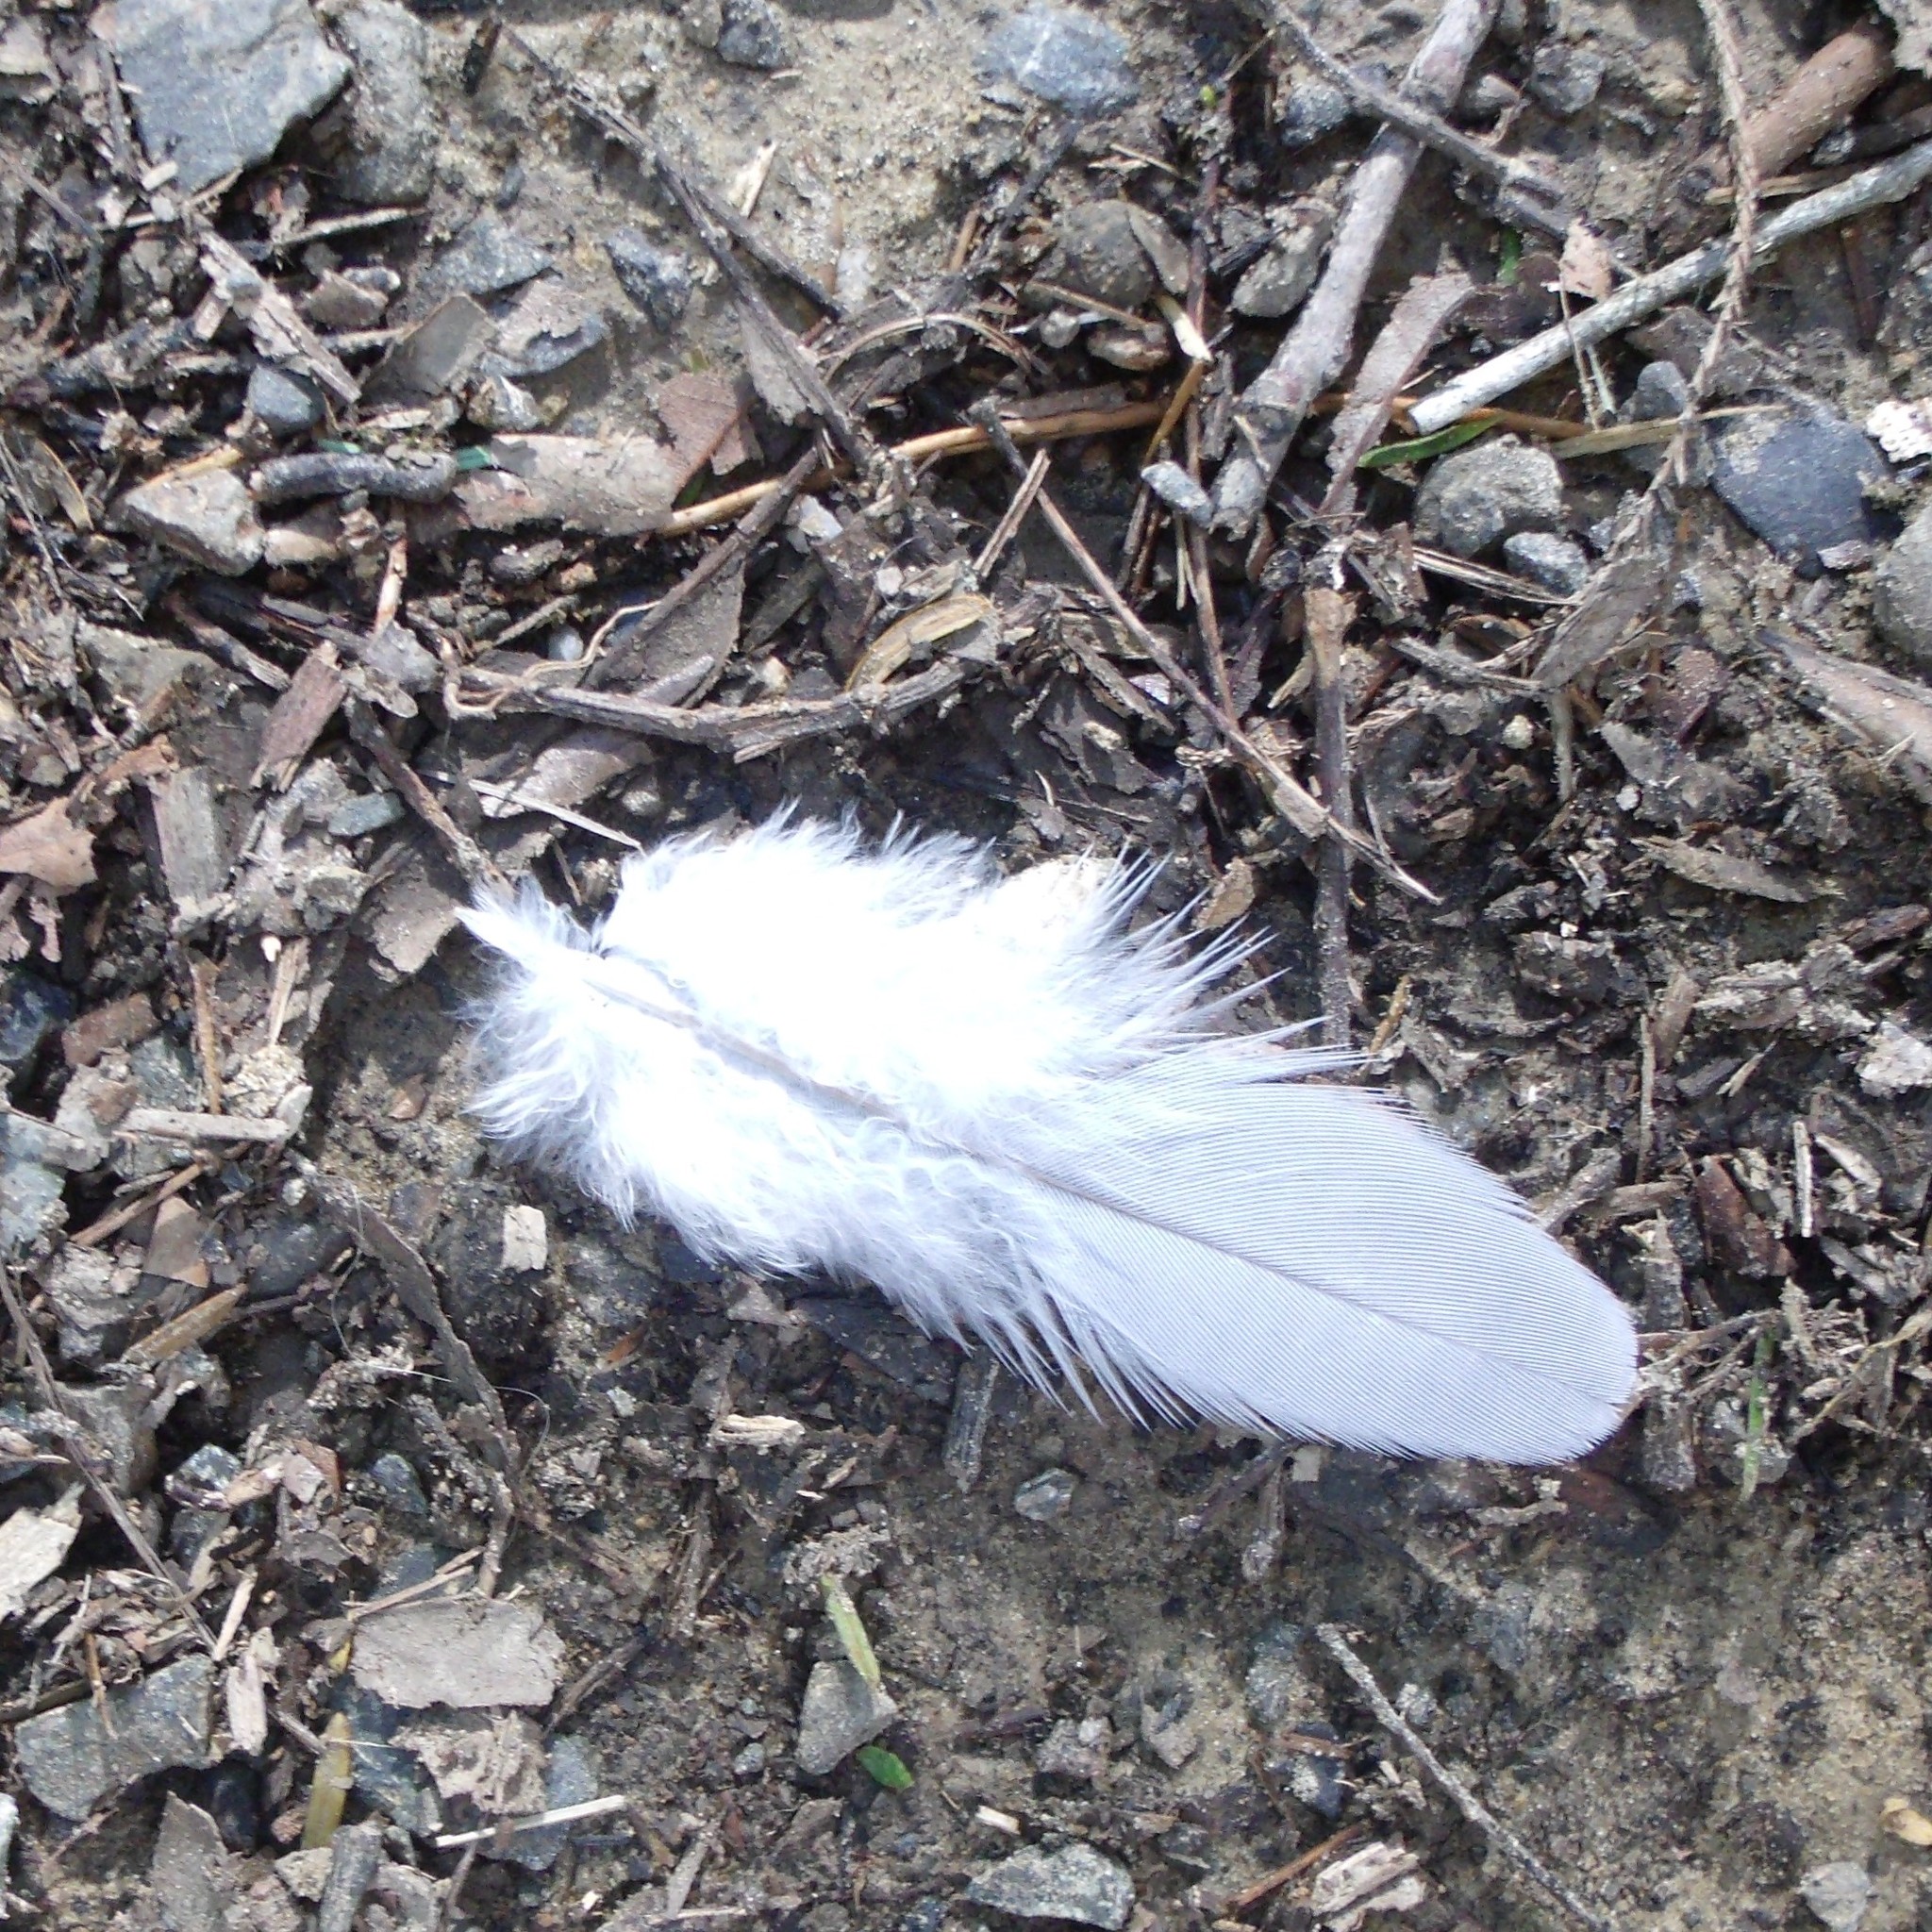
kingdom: Animalia
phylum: Chordata
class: Aves
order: Columbiformes
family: Columbidae
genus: Hemiphaga
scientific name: Hemiphaga novaeseelandiae
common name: New zealand pigeon
